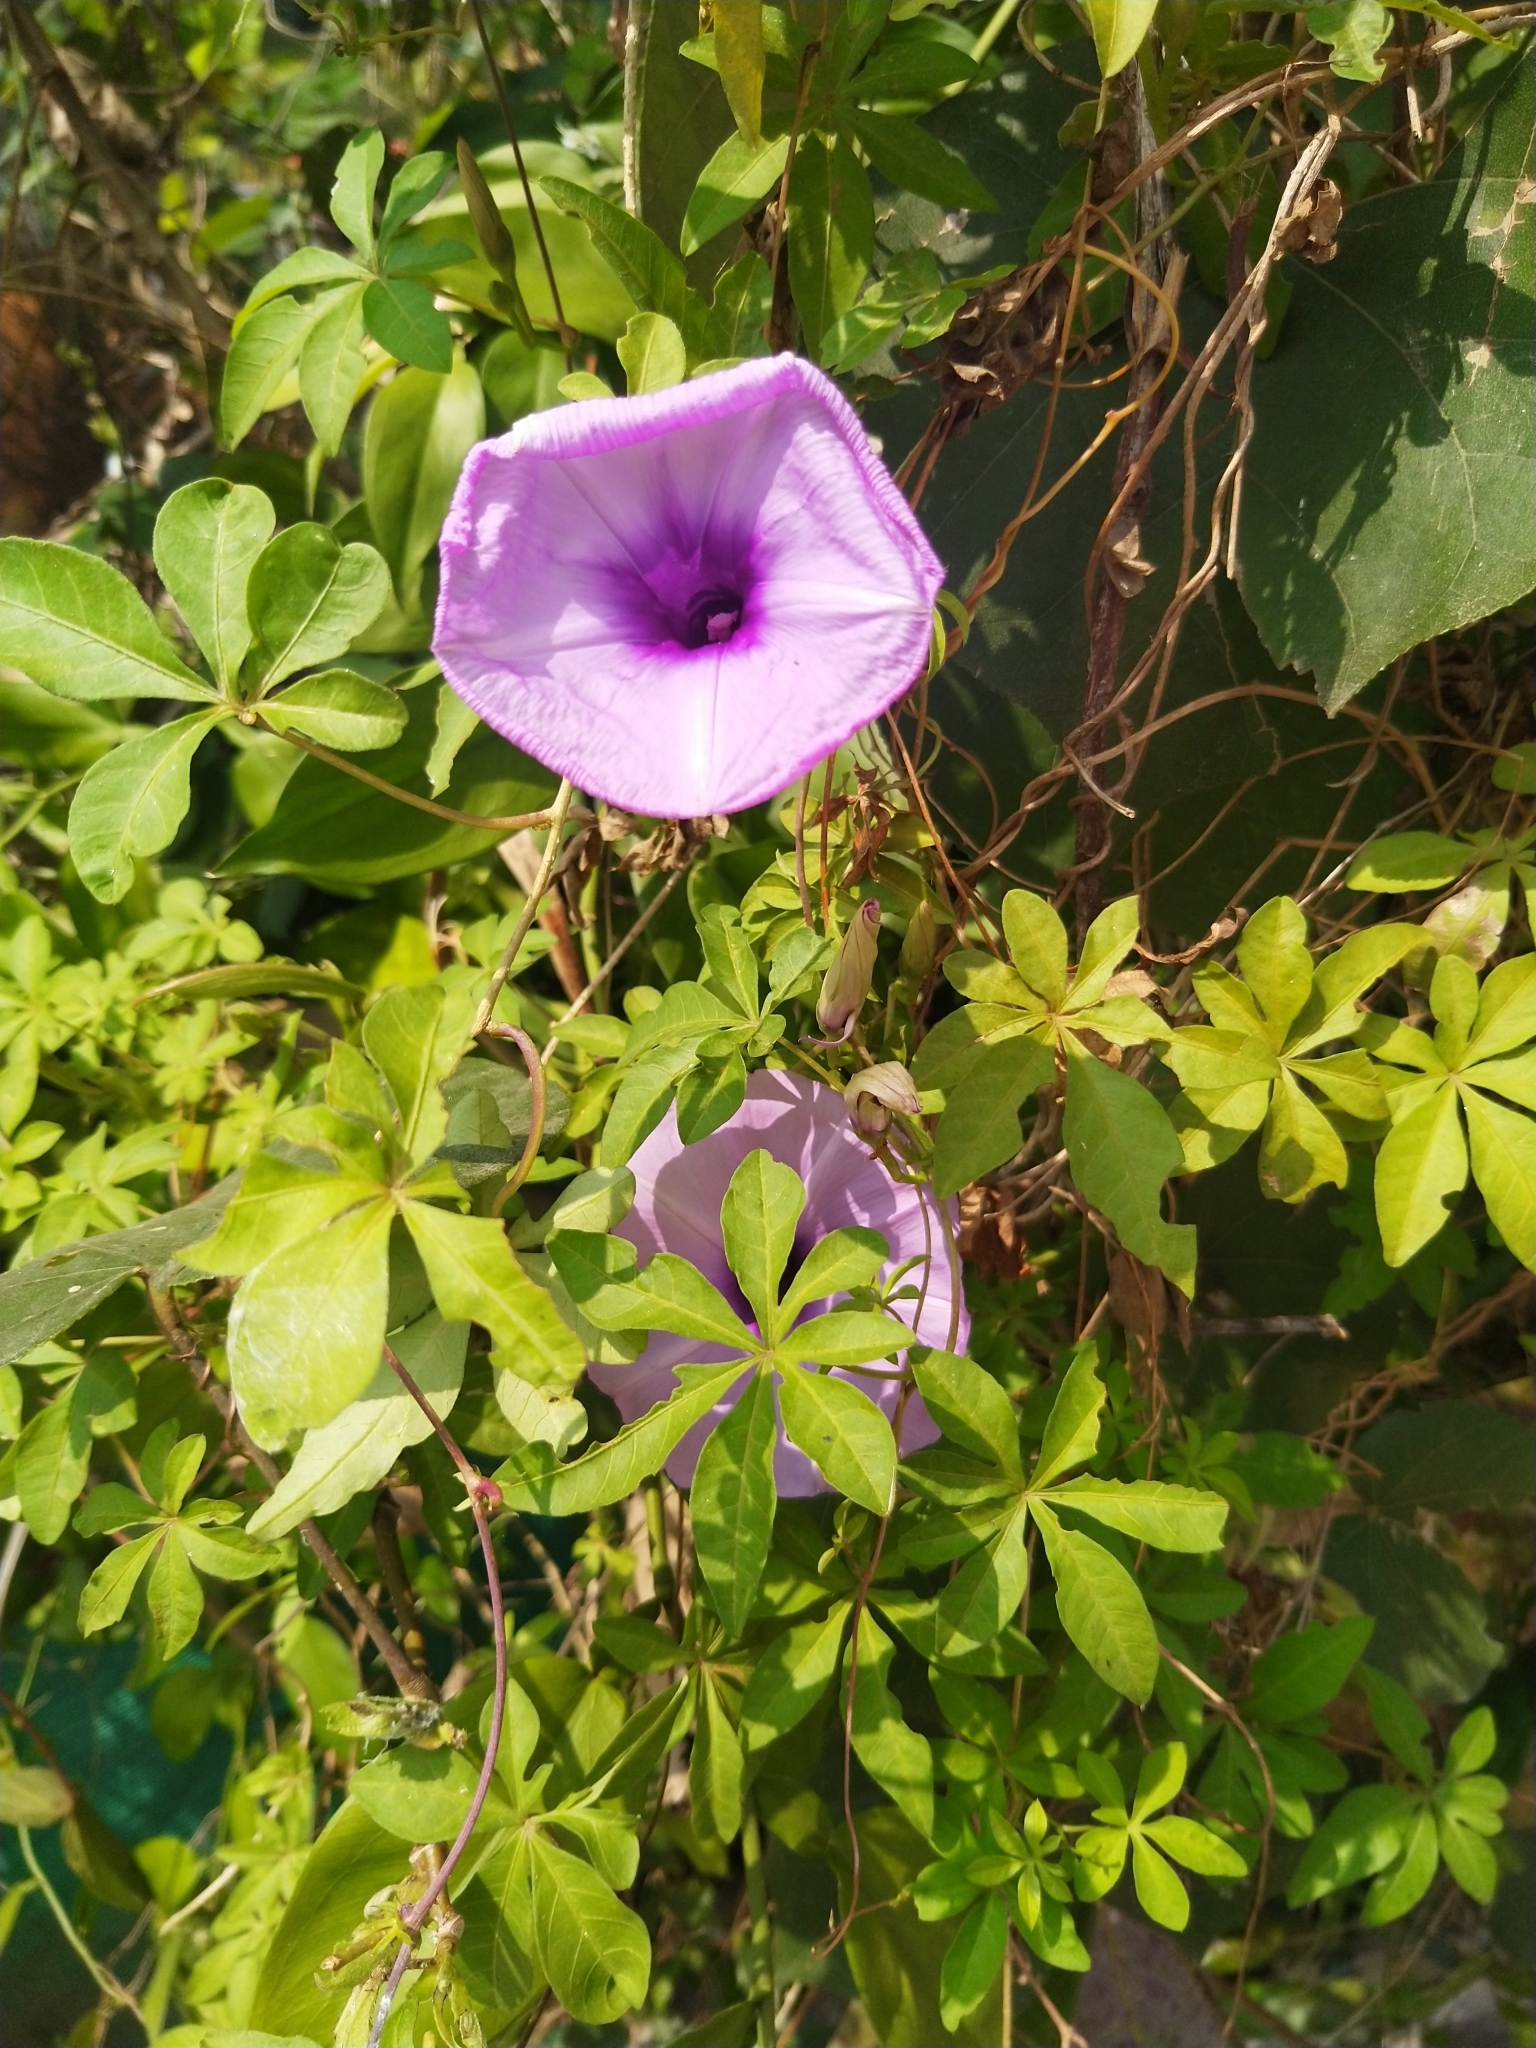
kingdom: Plantae
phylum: Tracheophyta
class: Magnoliopsida
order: Solanales
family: Convolvulaceae
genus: Ipomoea
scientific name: Ipomoea cairica
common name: Mile a minute vine
